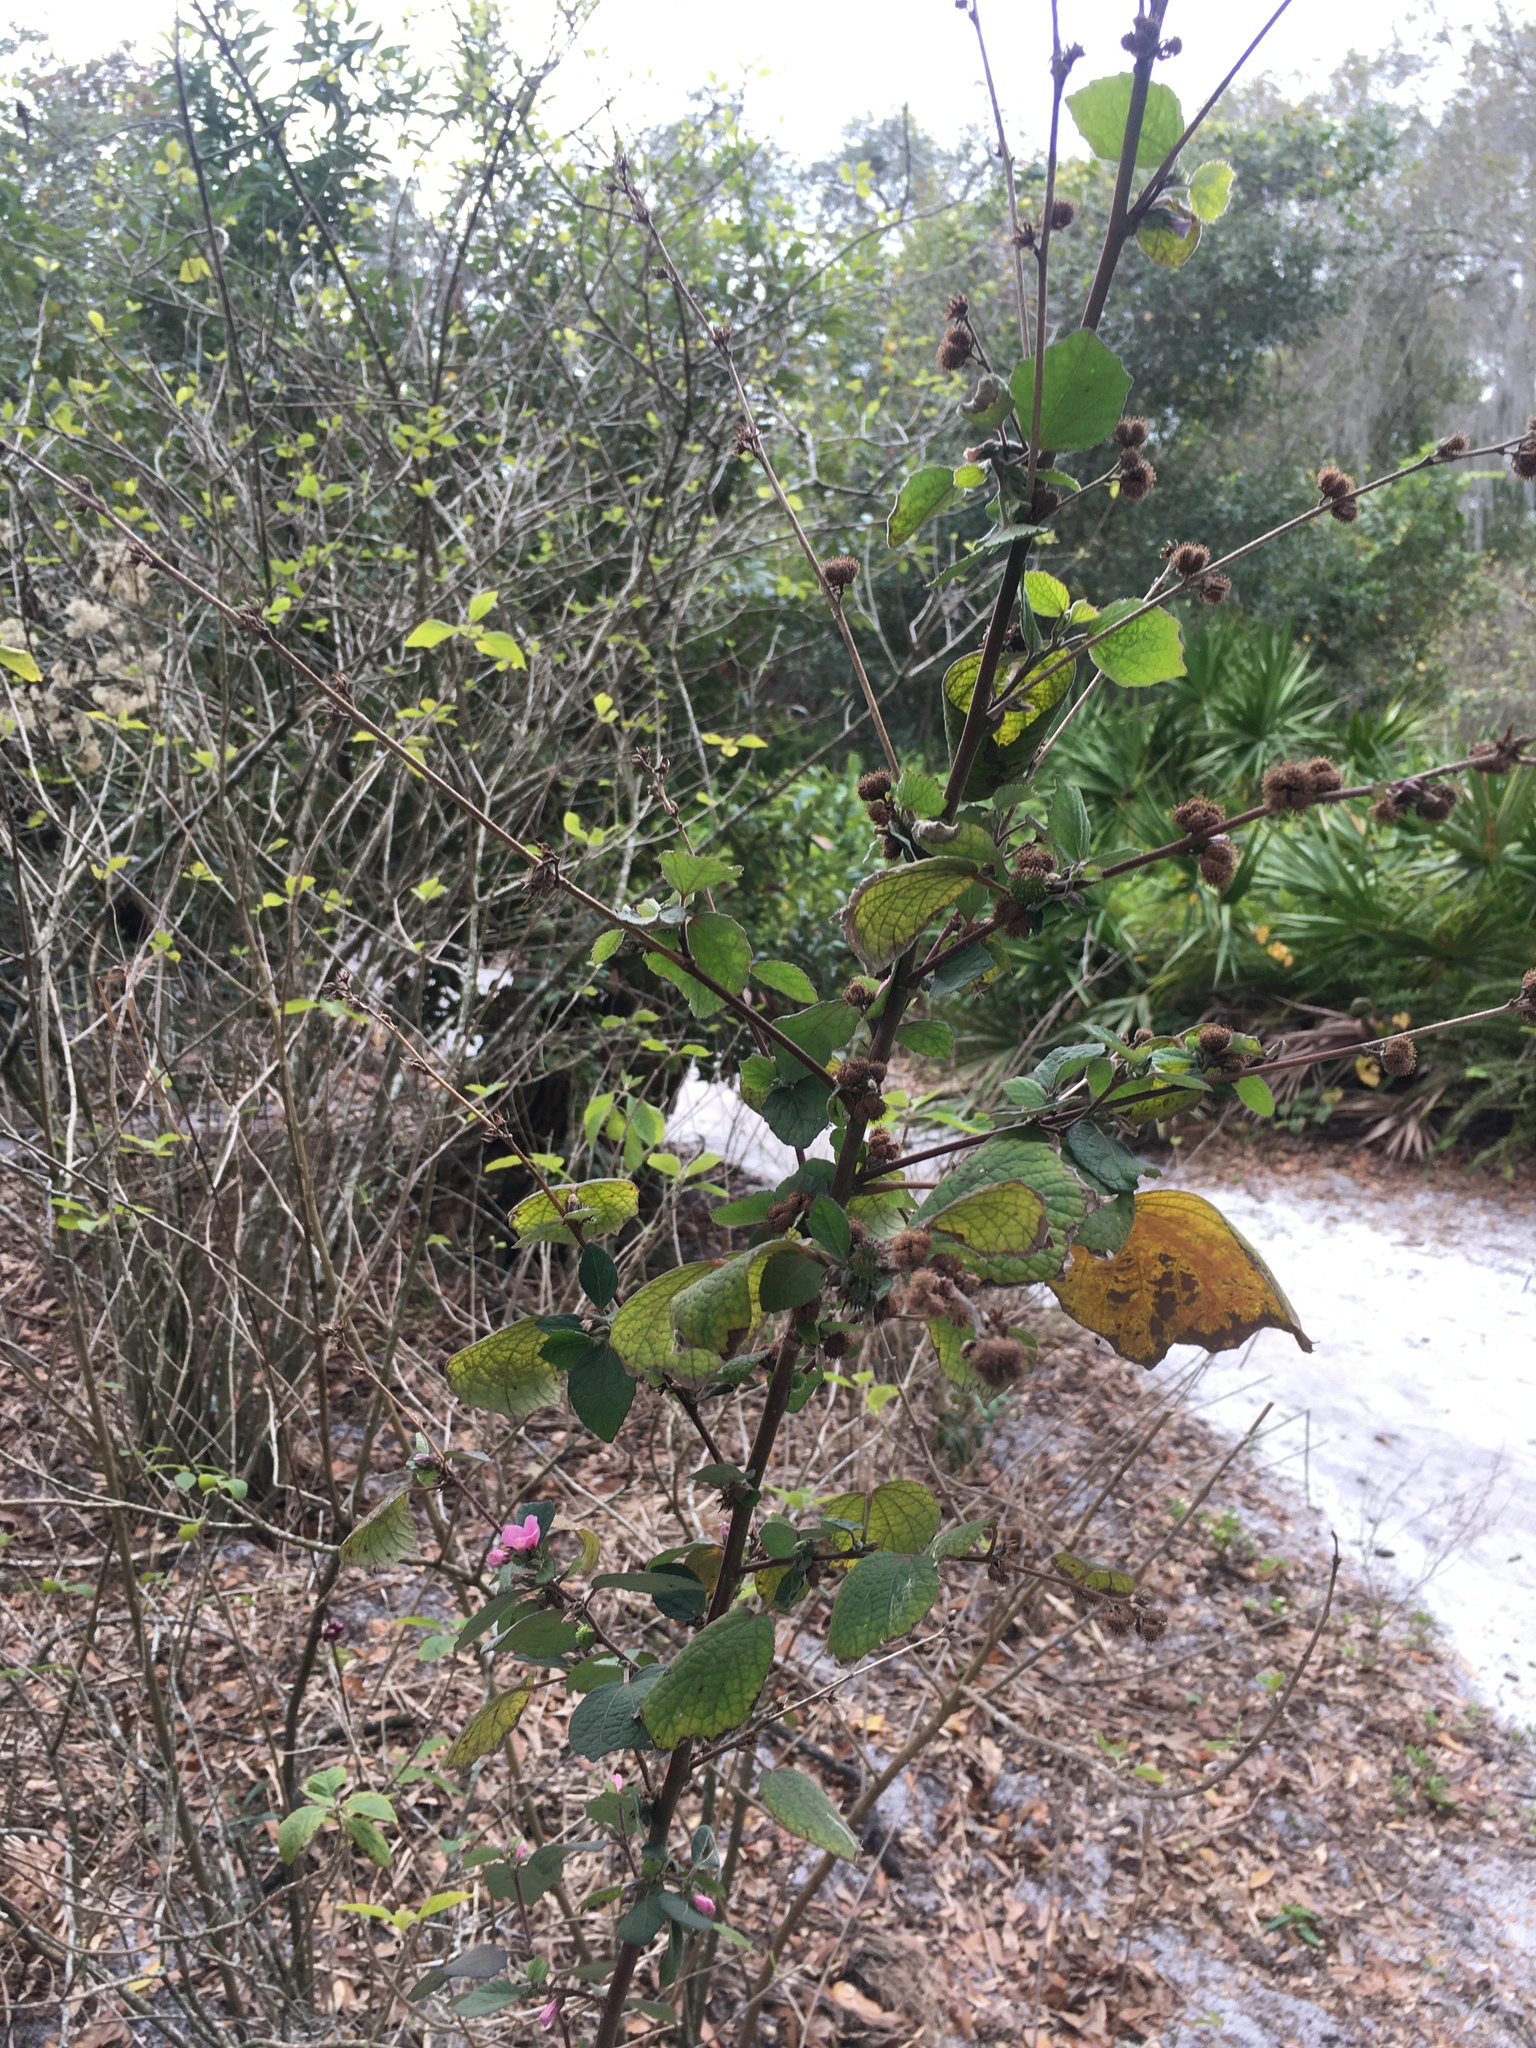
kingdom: Plantae
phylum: Tracheophyta
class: Magnoliopsida
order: Malvales
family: Malvaceae
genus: Urena
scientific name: Urena lobata
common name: Caesarweed
